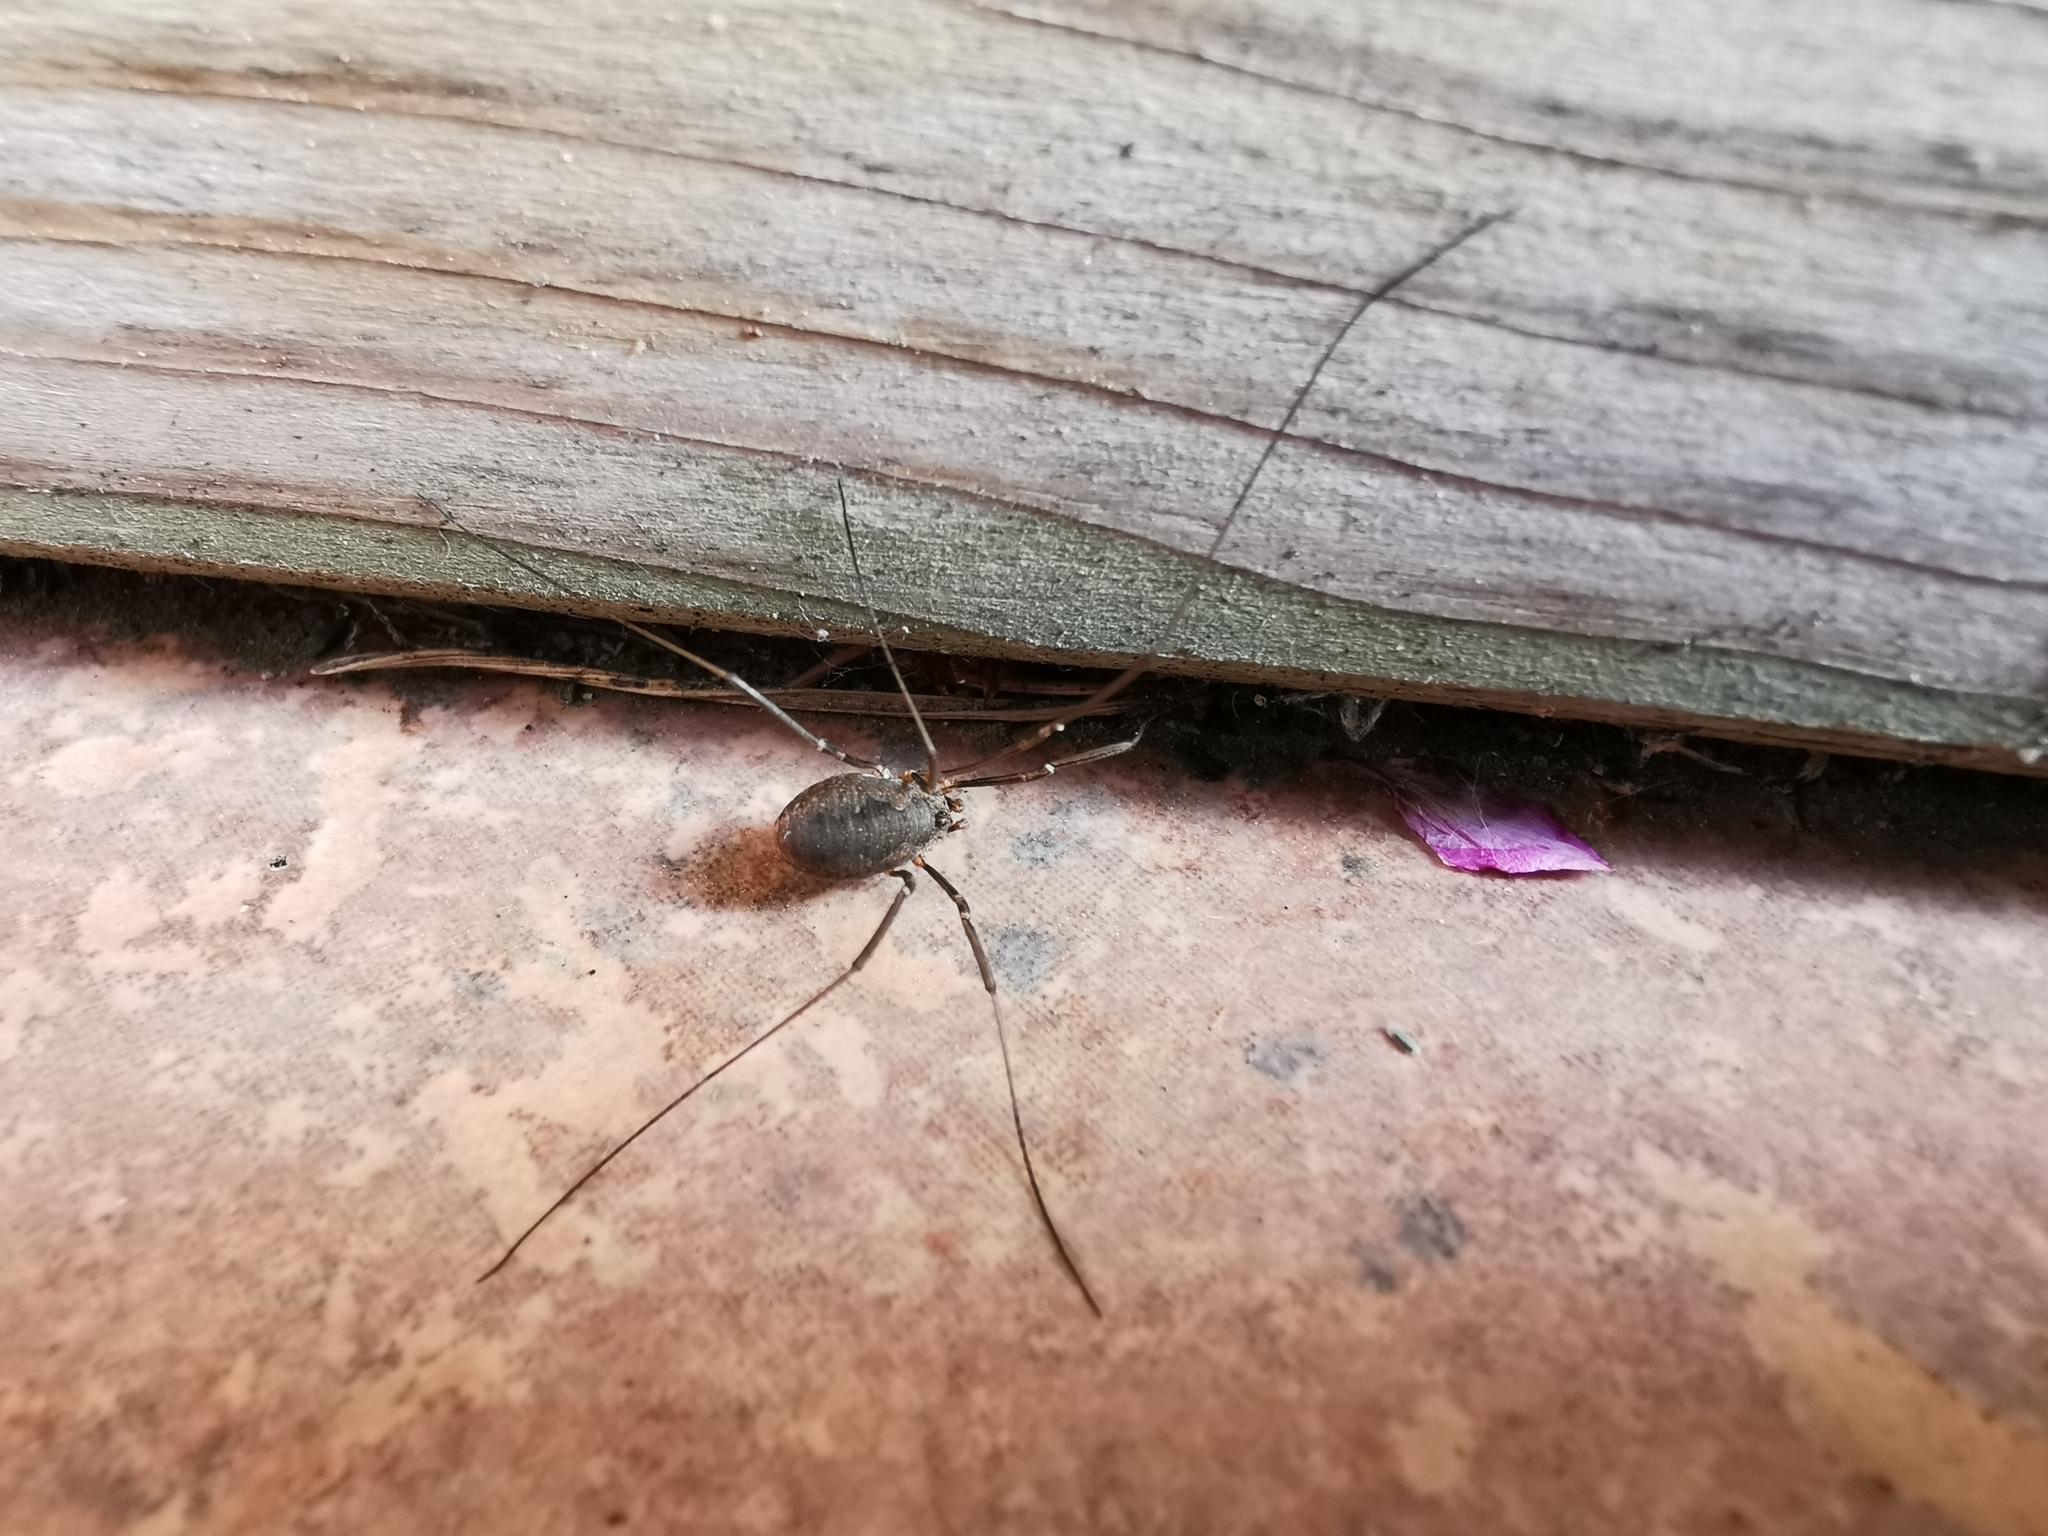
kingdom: Animalia
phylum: Arthropoda
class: Arachnida
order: Opiliones
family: Phalangiidae
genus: Phalangium
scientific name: Phalangium opilio
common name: Daddy longleg
